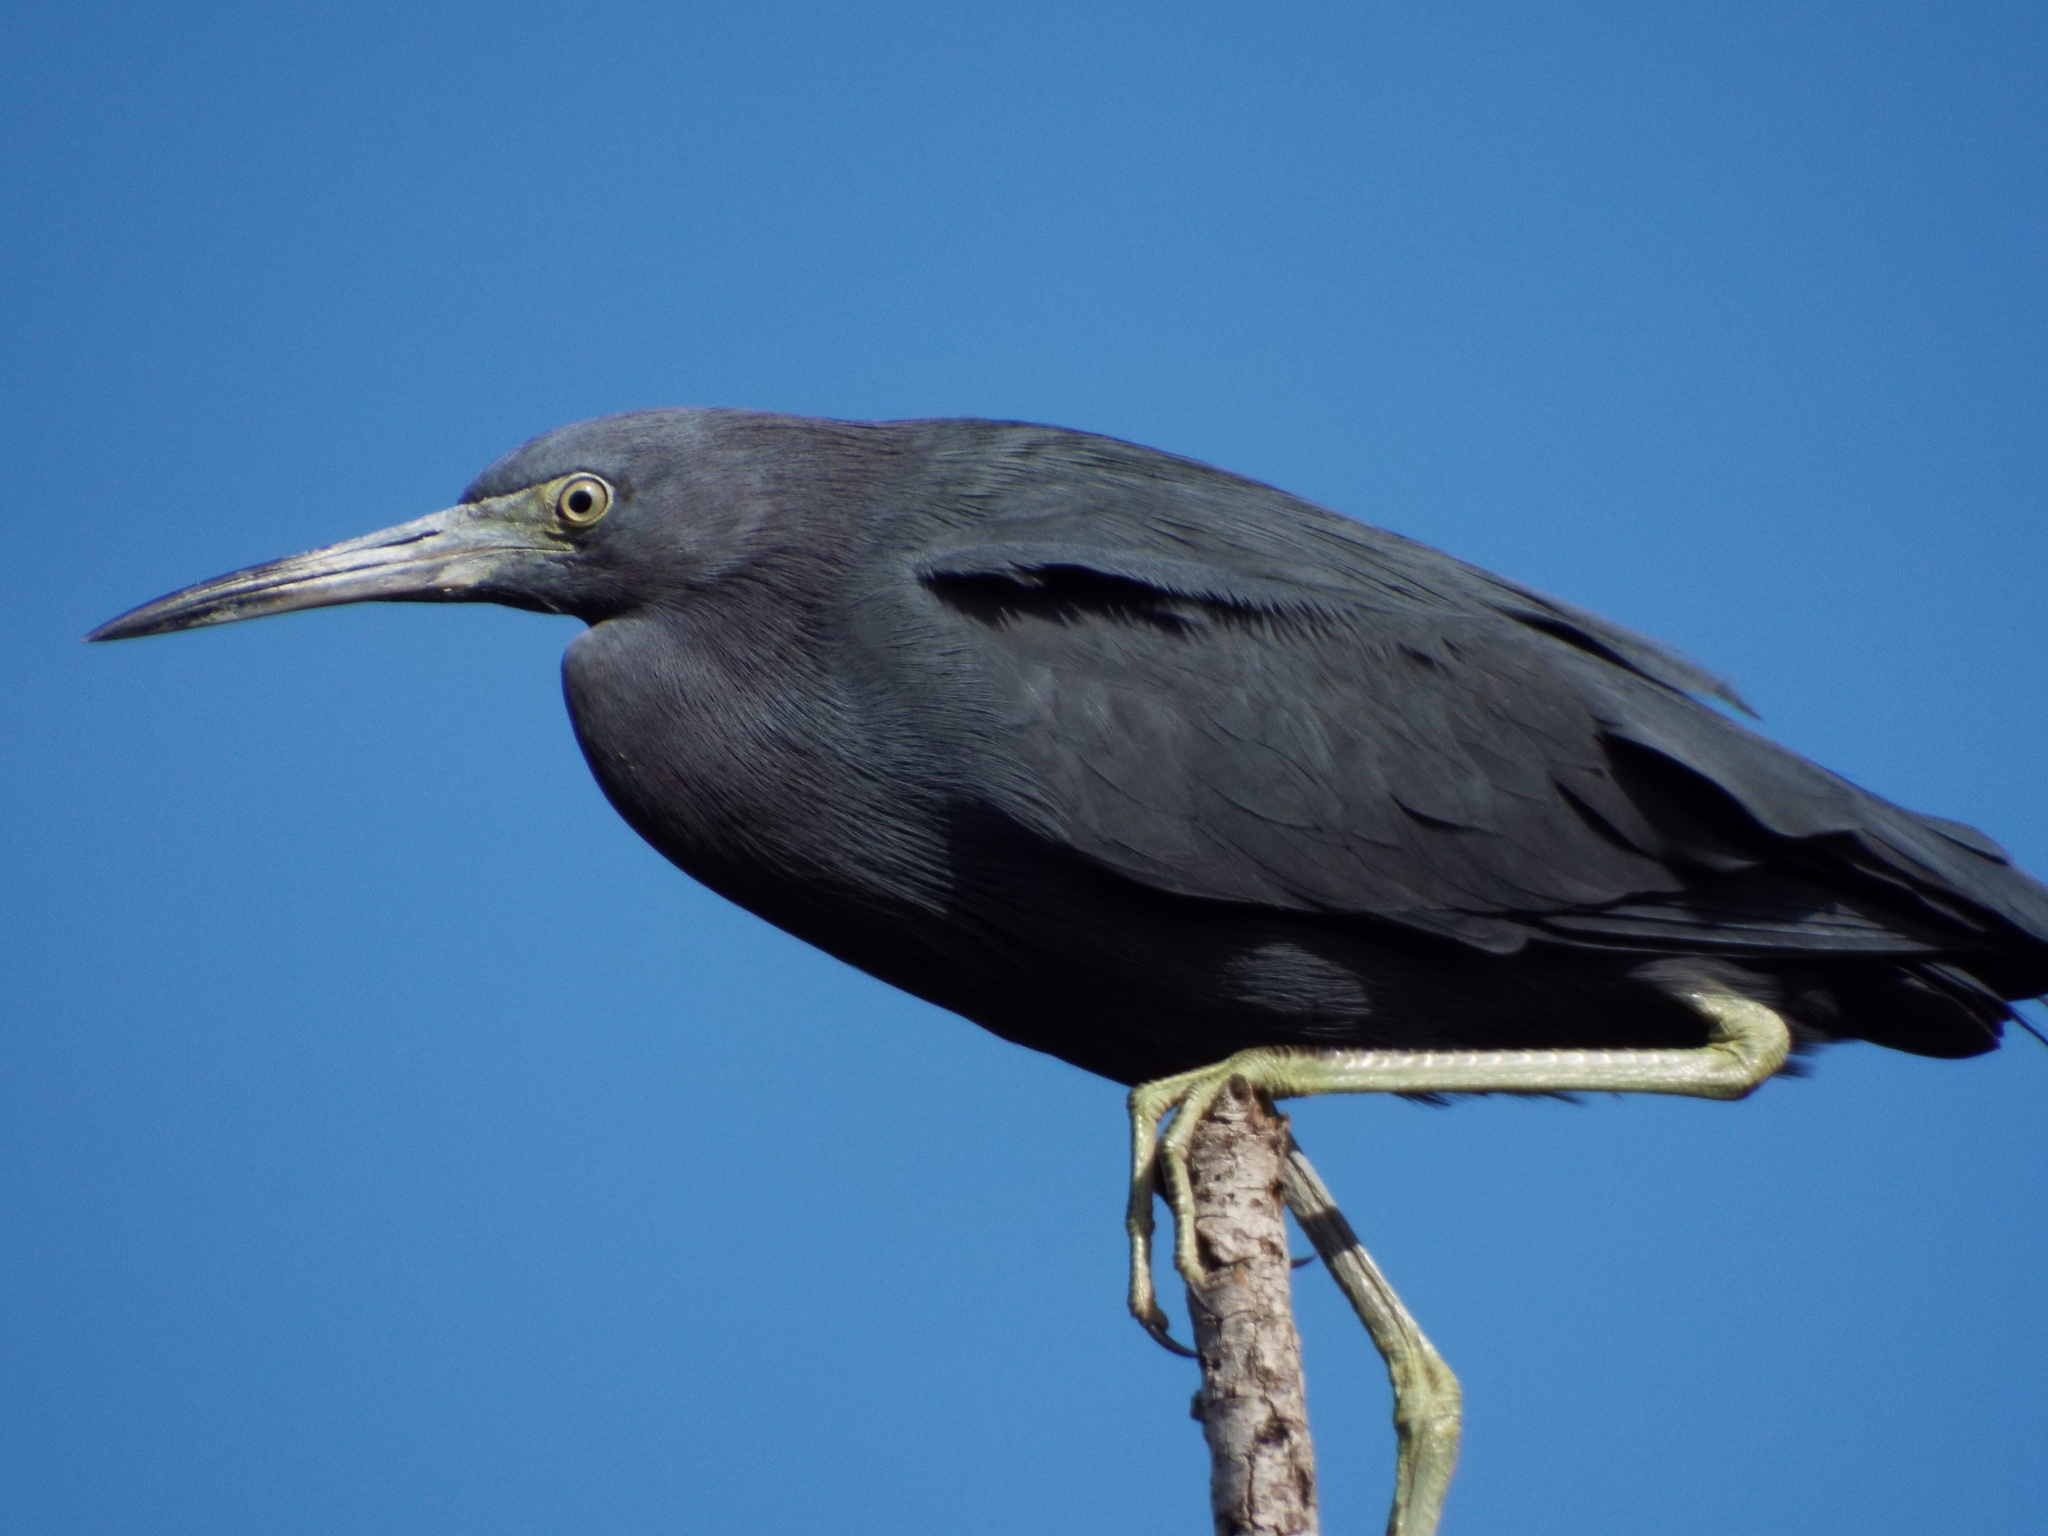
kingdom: Animalia
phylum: Chordata
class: Aves
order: Pelecaniformes
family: Ardeidae
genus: Egretta
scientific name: Egretta caerulea
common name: Little blue heron
